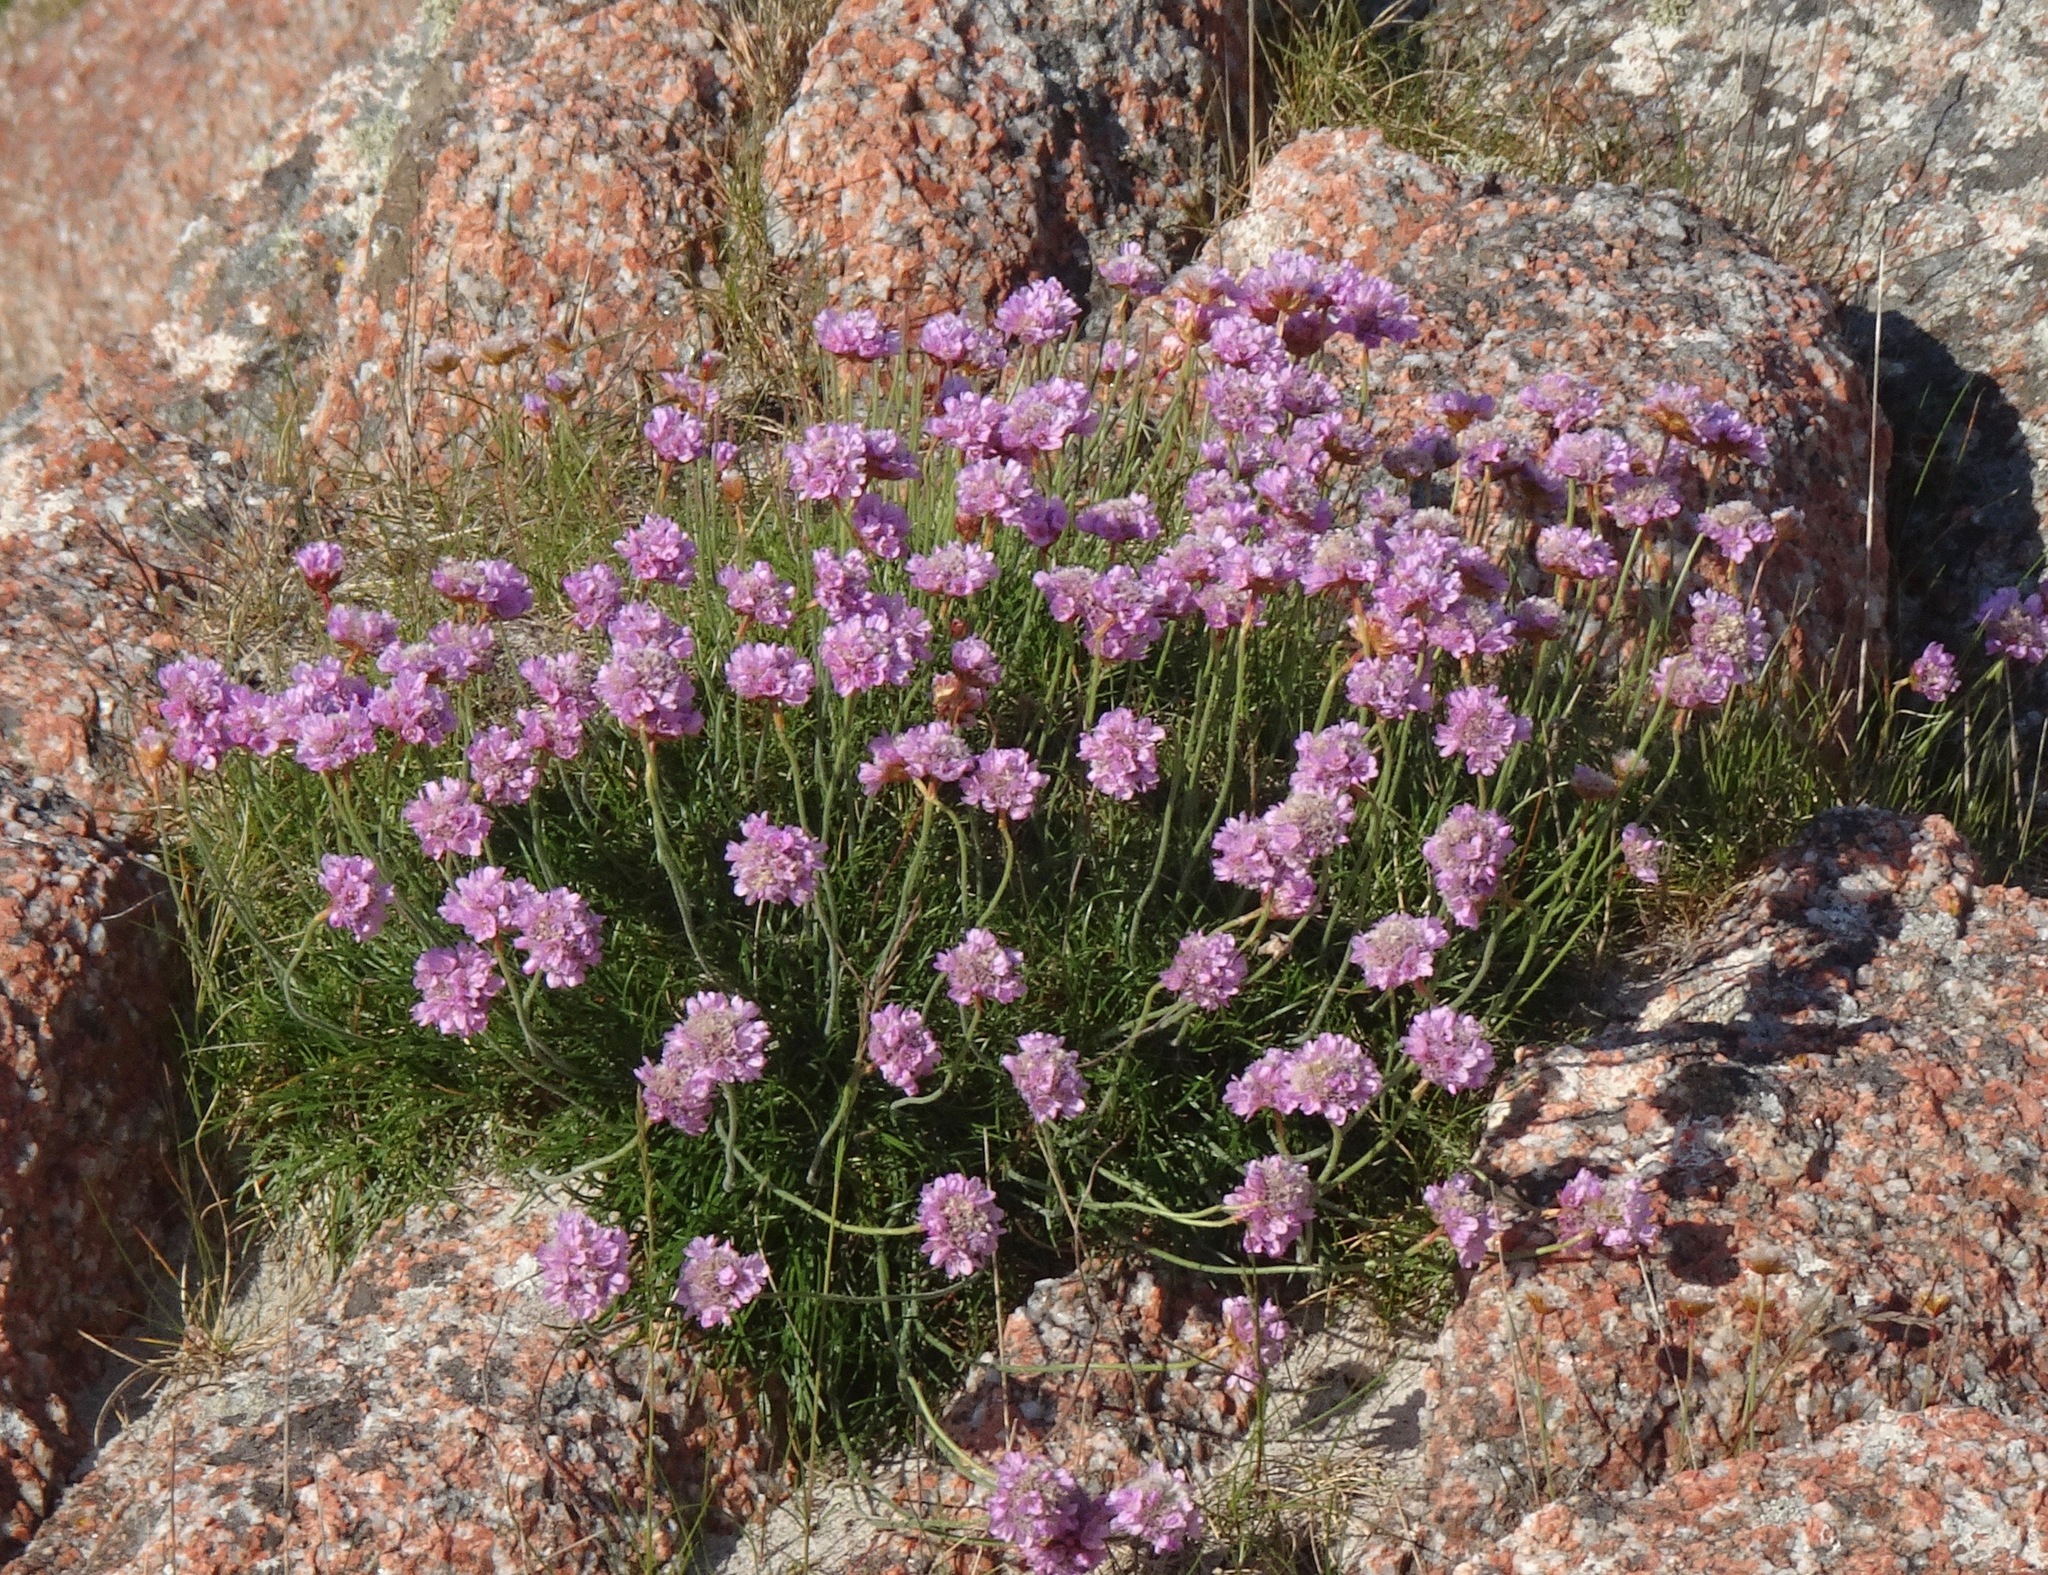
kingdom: Plantae
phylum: Tracheophyta
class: Magnoliopsida
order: Caryophyllales
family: Plumbaginaceae
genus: Armeria
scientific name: Armeria maritima
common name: Thrift
